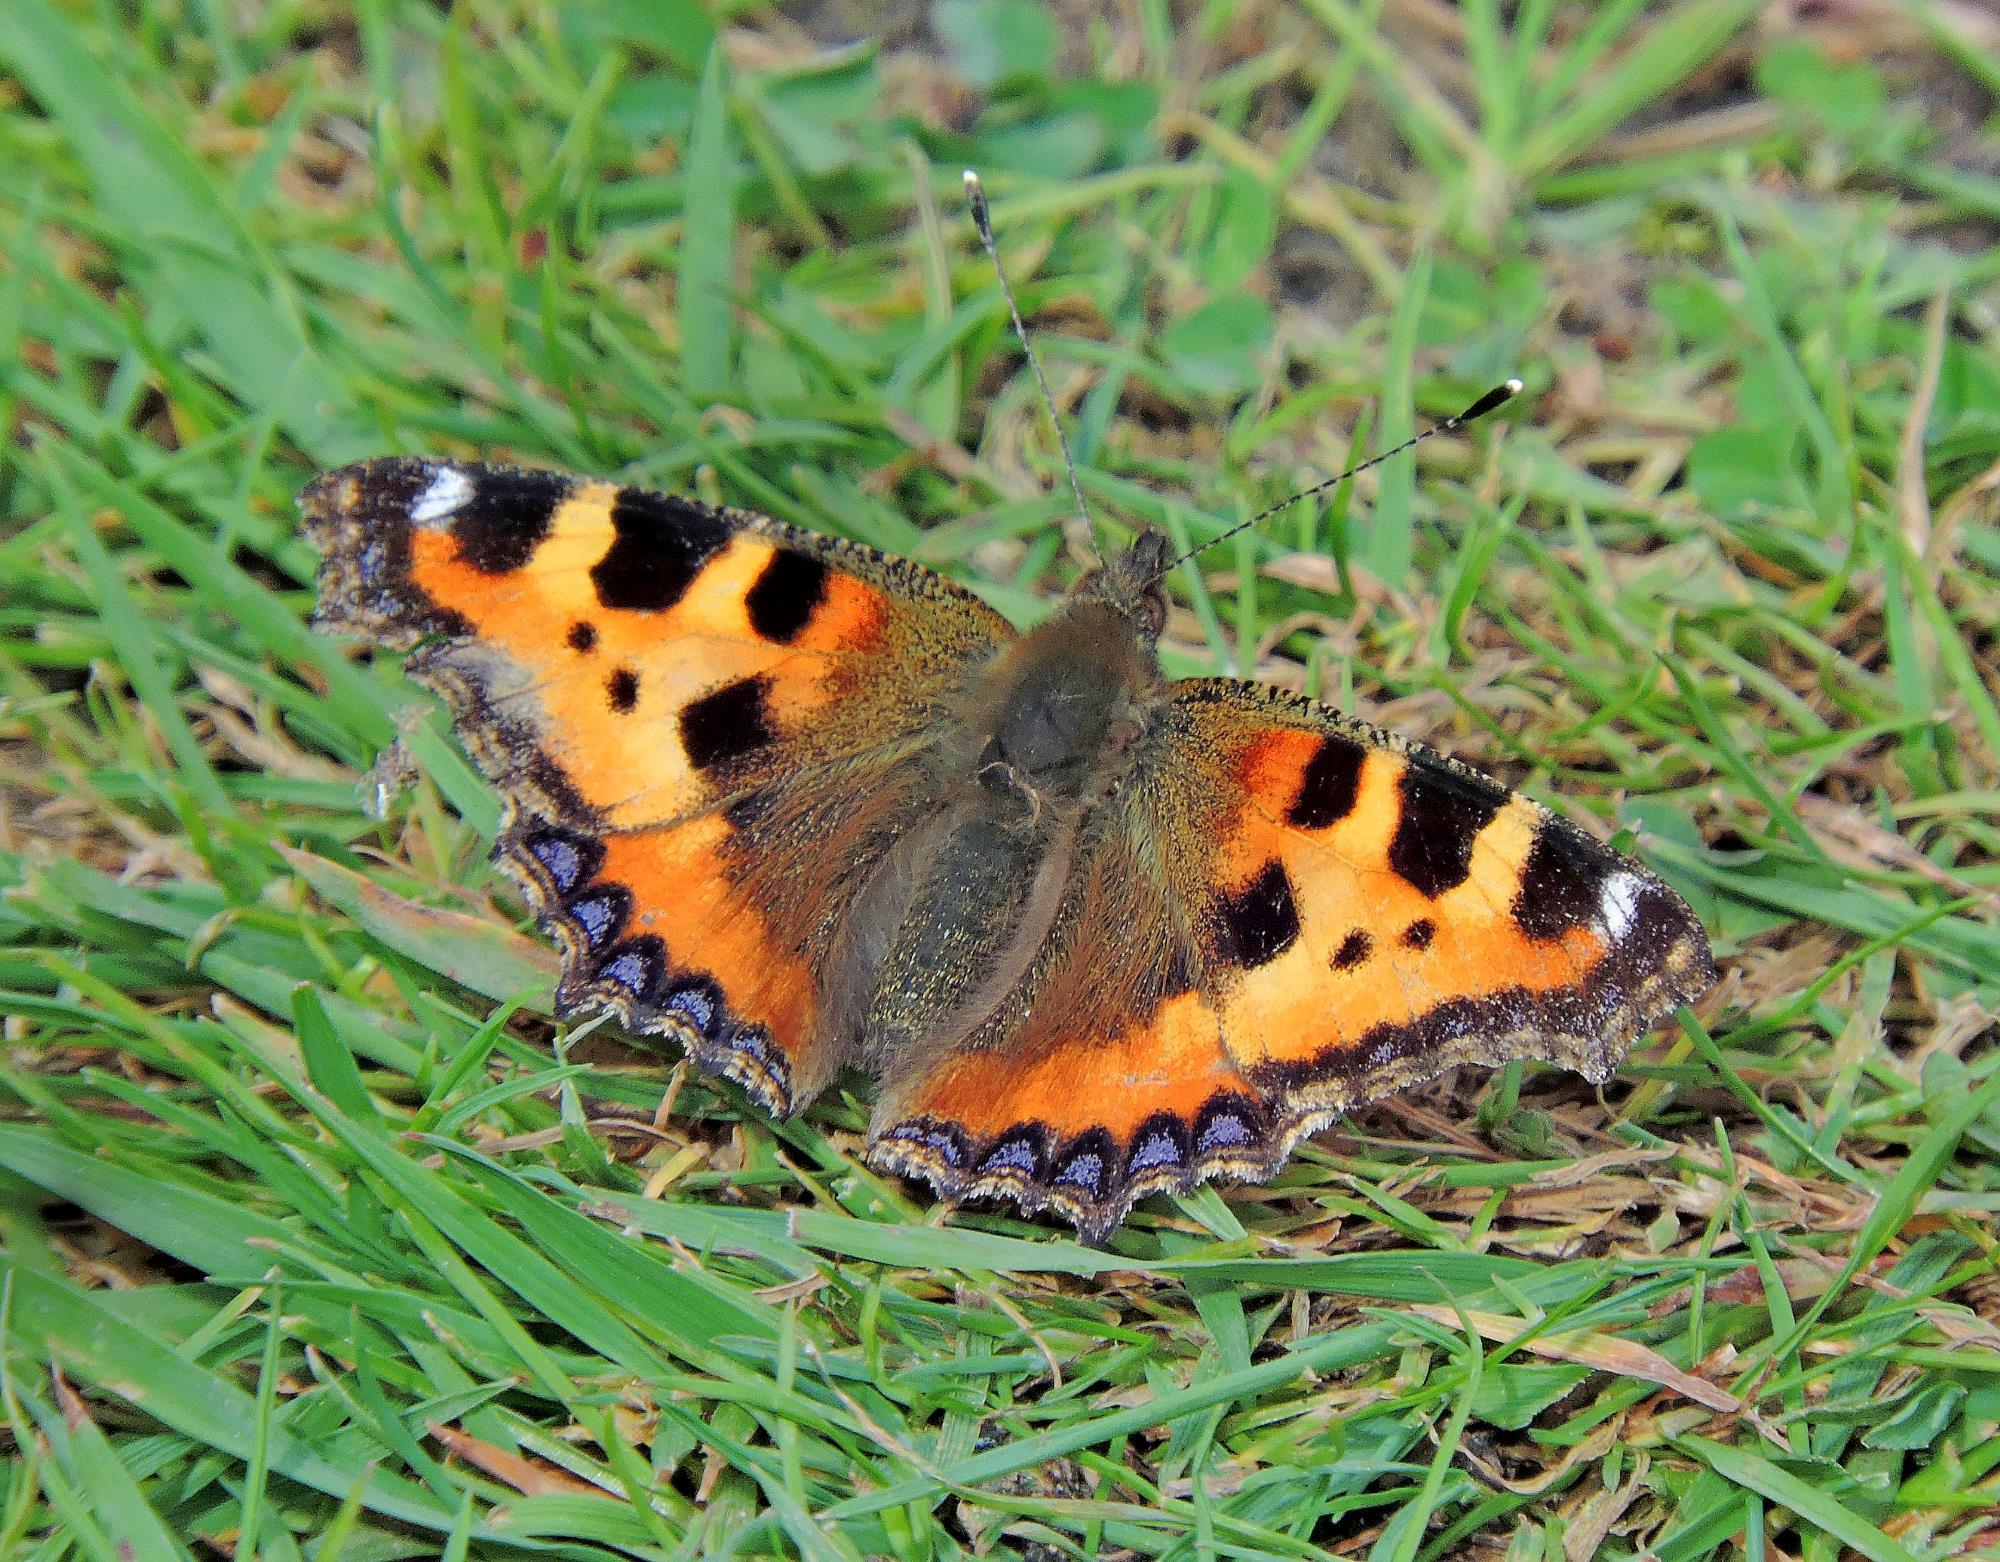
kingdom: Animalia
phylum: Arthropoda
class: Insecta
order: Lepidoptera
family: Nymphalidae
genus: Aglais
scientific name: Aglais urticae
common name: Small tortoiseshell
